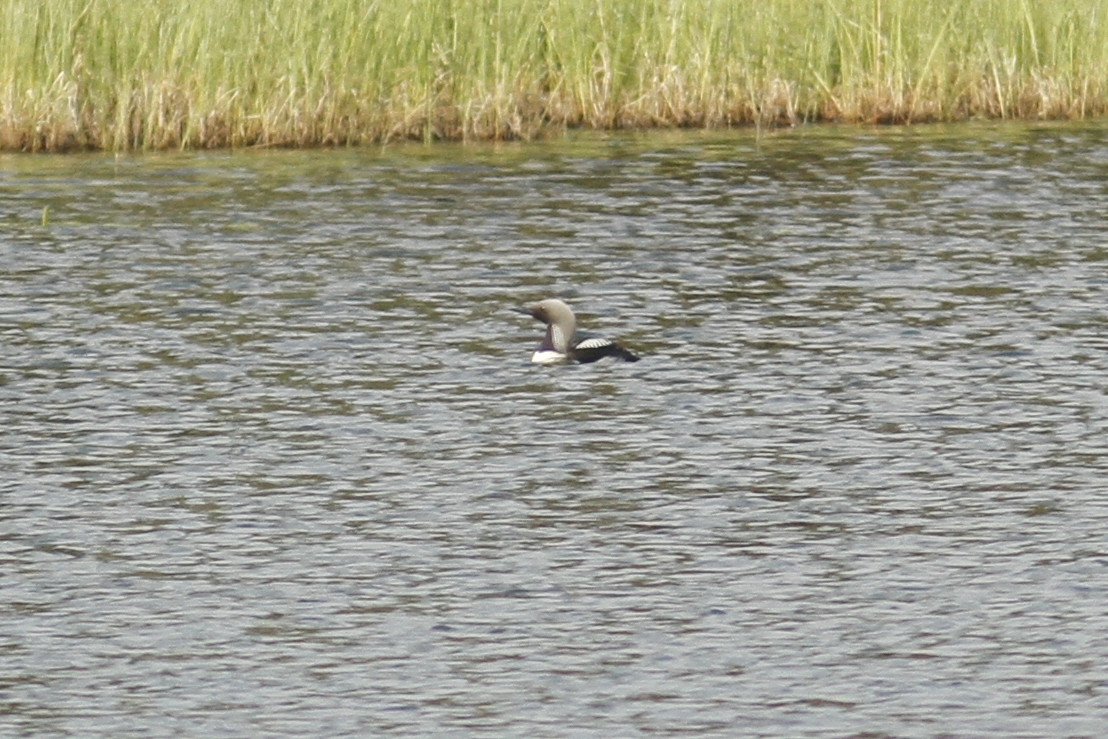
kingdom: Animalia
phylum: Chordata
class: Aves
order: Gaviiformes
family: Gaviidae
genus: Gavia
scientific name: Gavia pacifica
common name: Pacific loon
